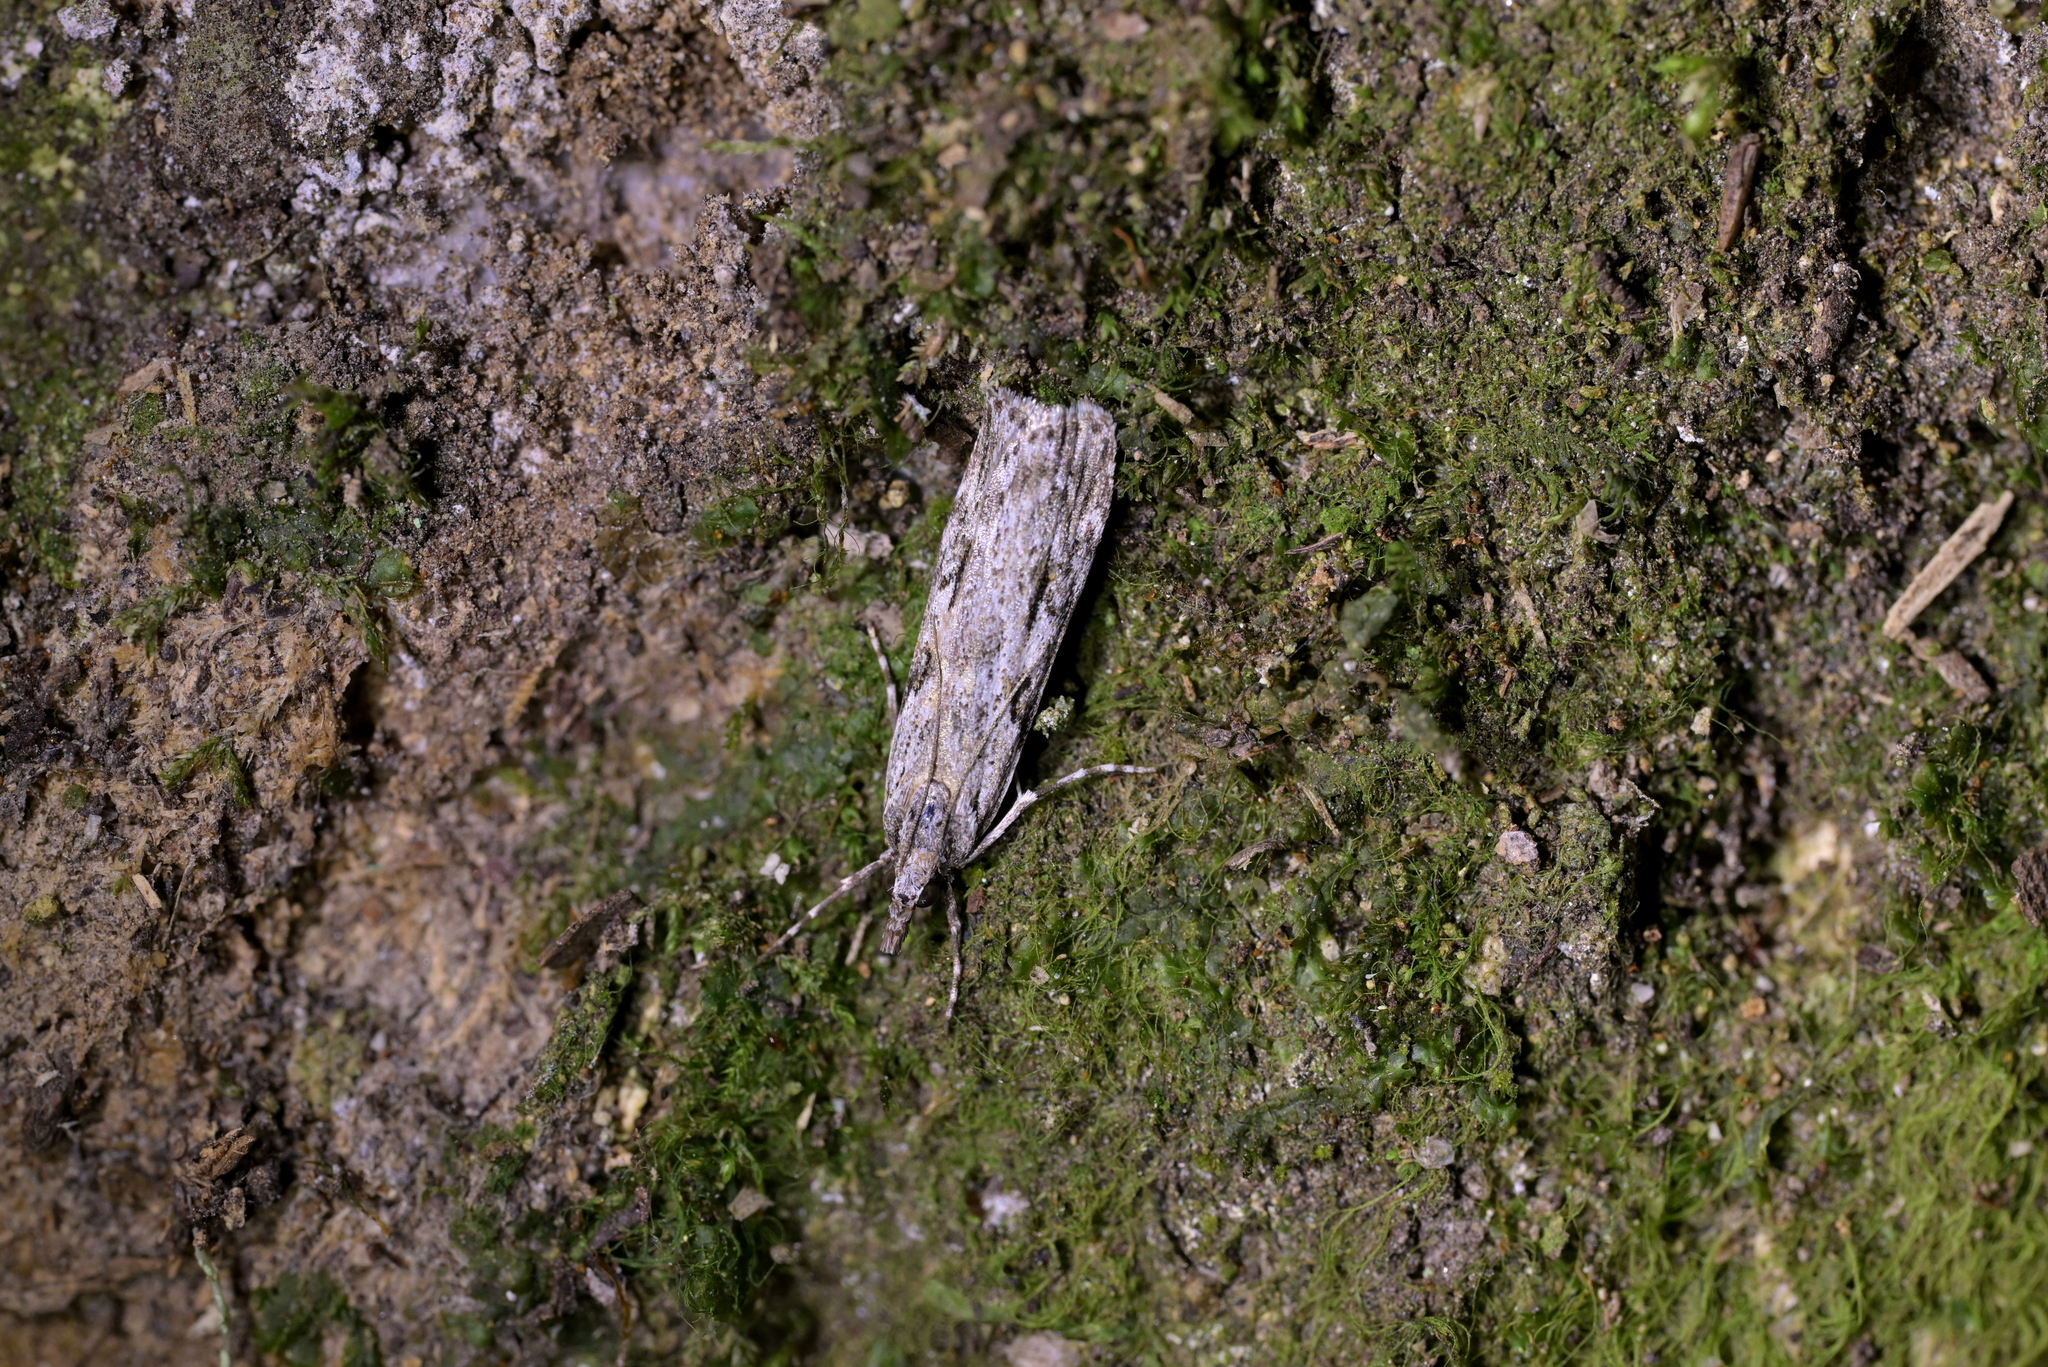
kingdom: Animalia
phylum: Arthropoda
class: Insecta
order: Lepidoptera
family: Crambidae
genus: Scoparia
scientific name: Scoparia halopis
